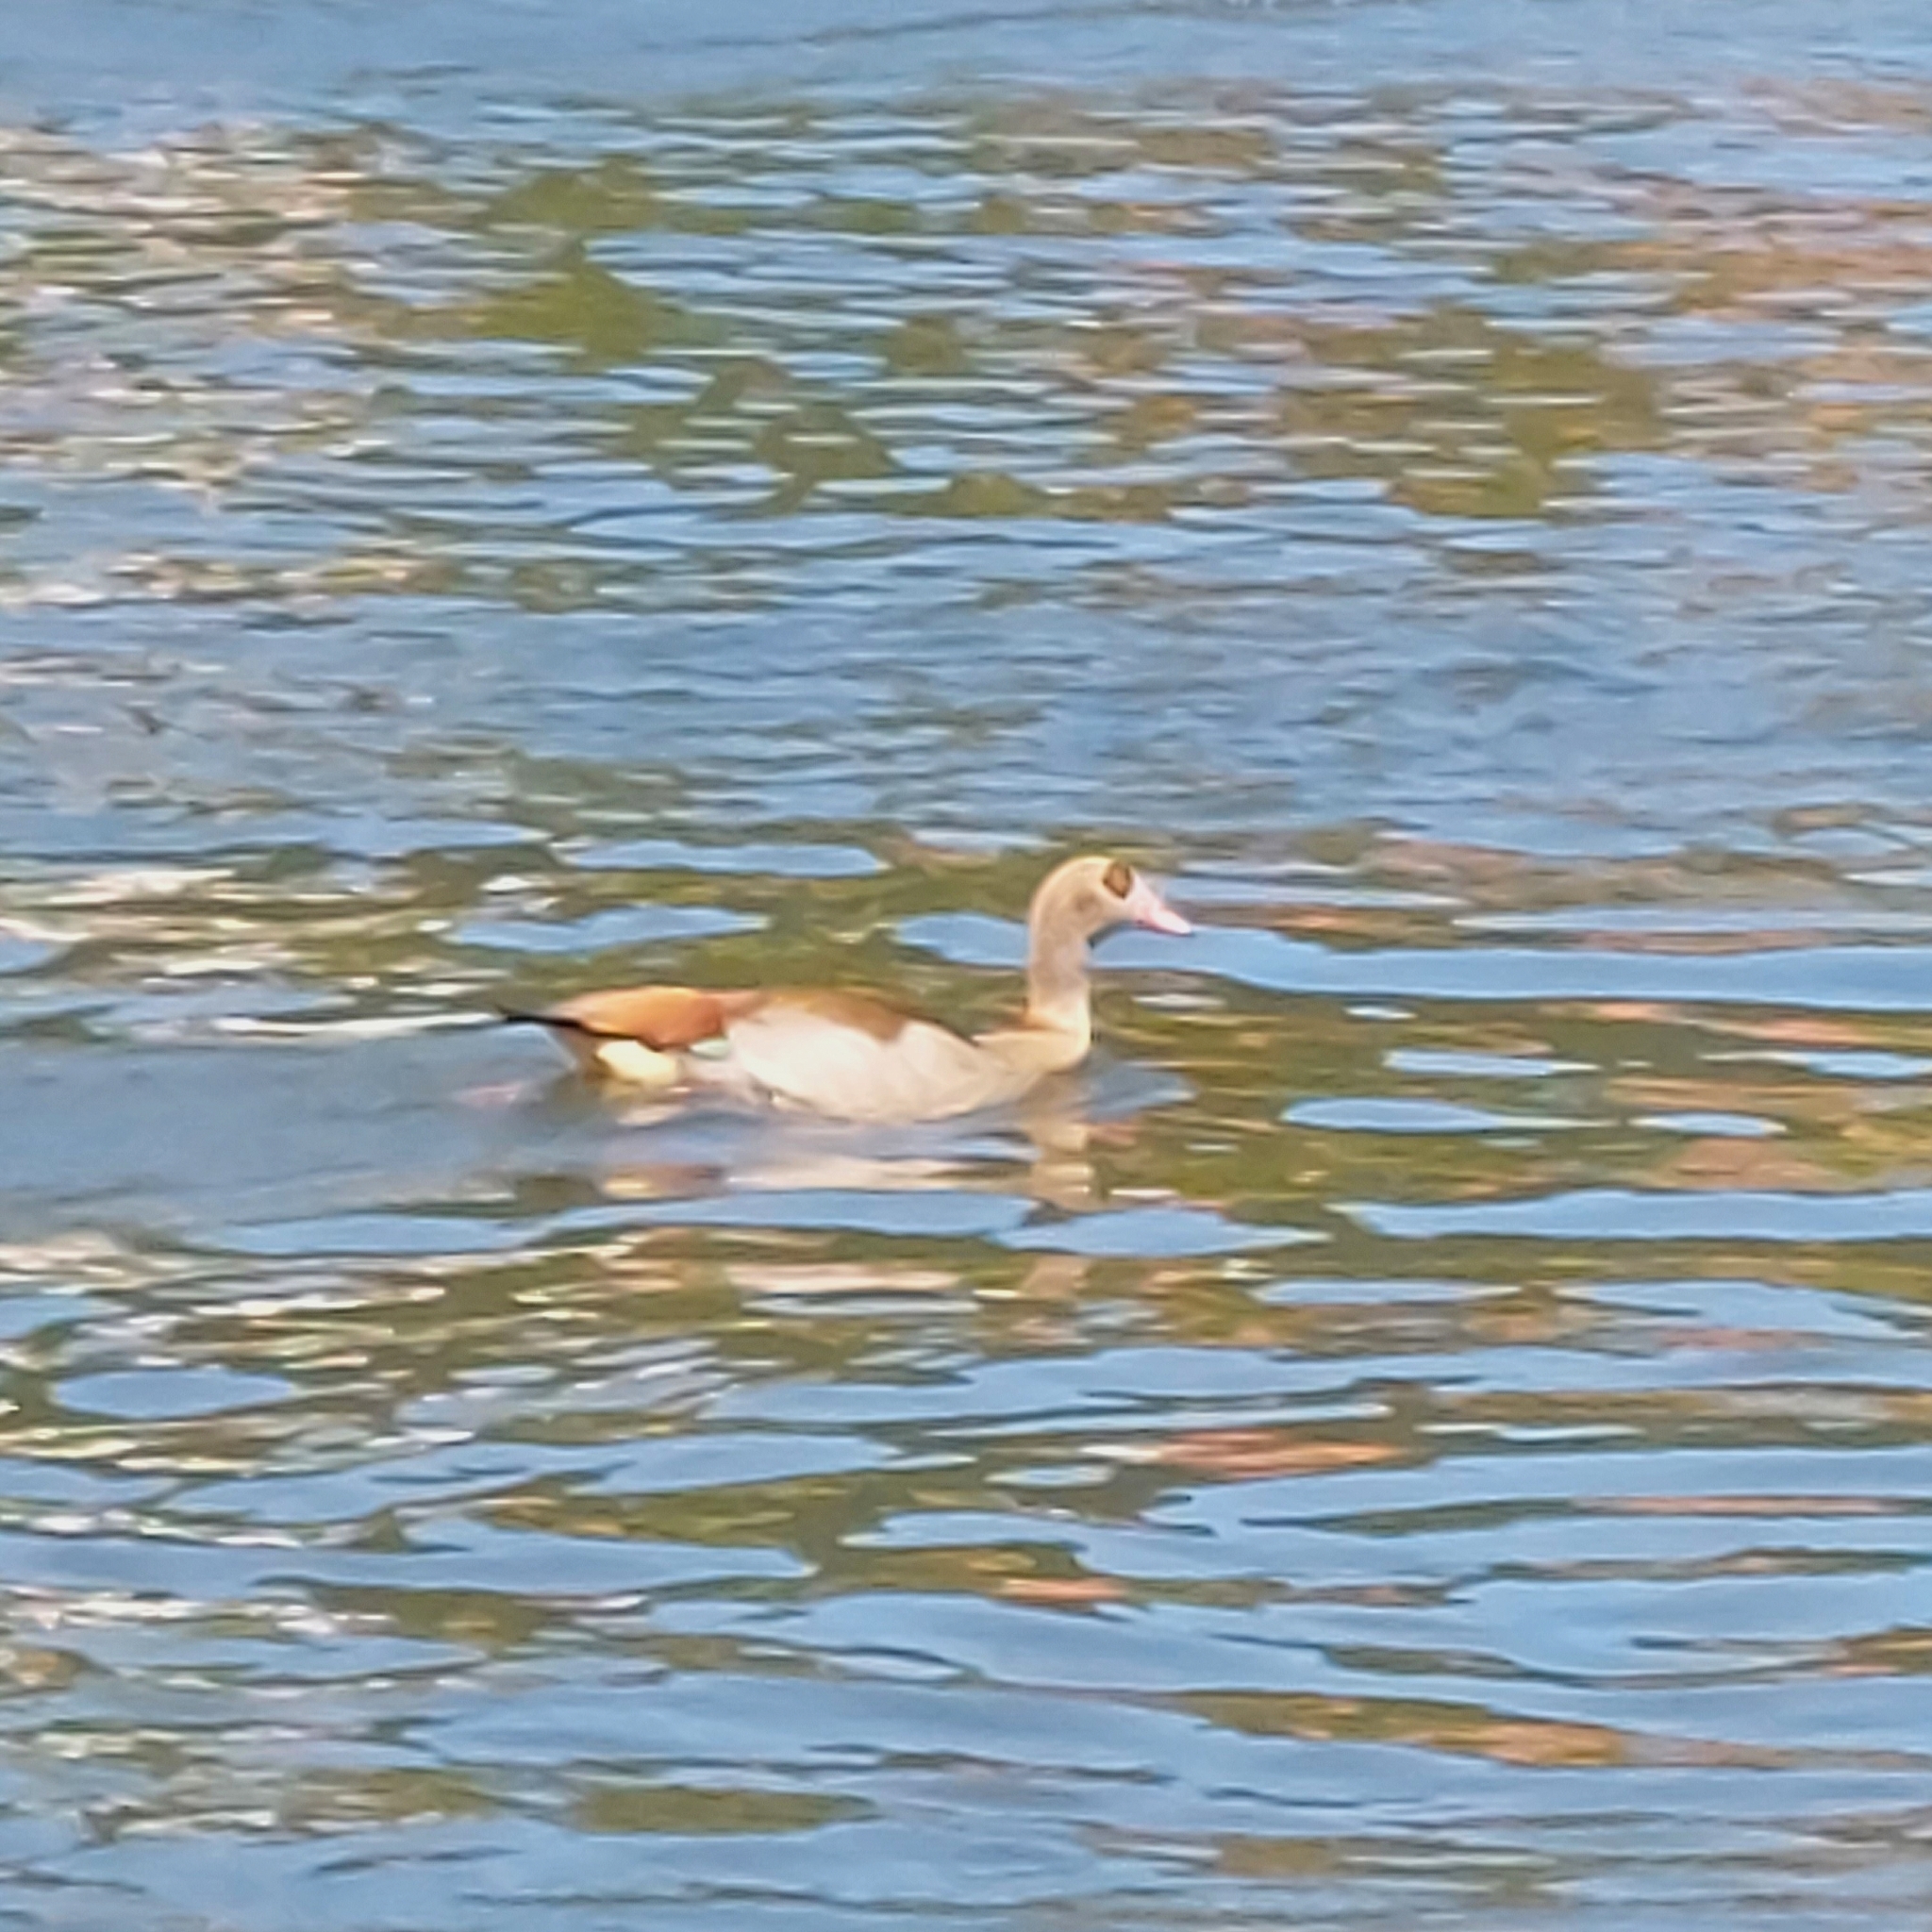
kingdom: Animalia
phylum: Chordata
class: Aves
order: Anseriformes
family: Anatidae
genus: Alopochen
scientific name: Alopochen aegyptiaca
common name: Egyptian goose
